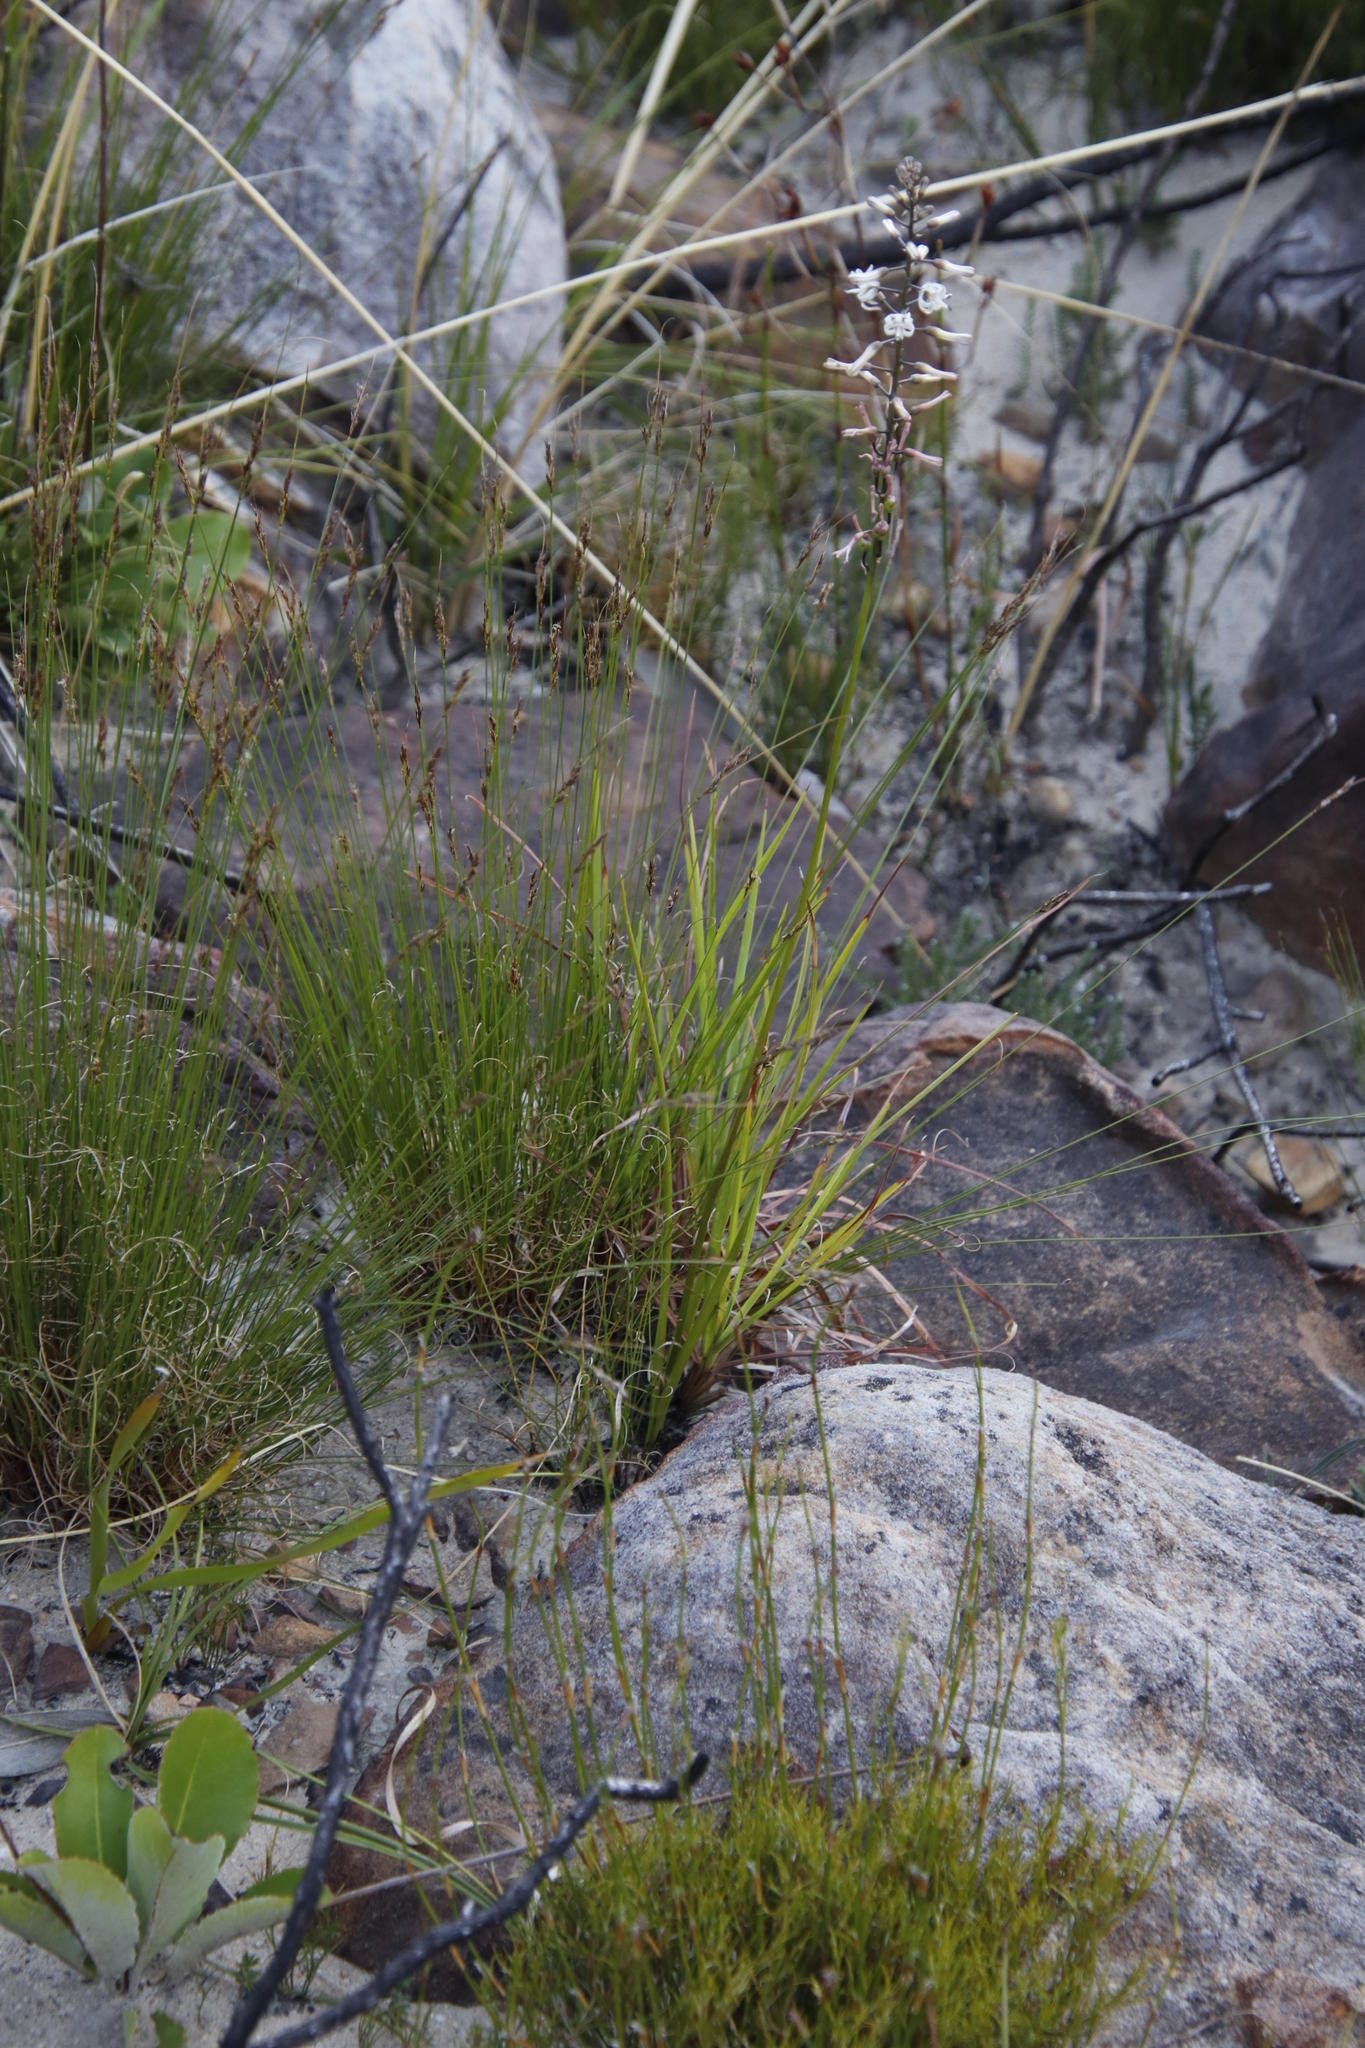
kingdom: Plantae
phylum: Tracheophyta
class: Liliopsida
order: Asparagales
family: Asparagaceae
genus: Drimia
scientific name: Drimia media
